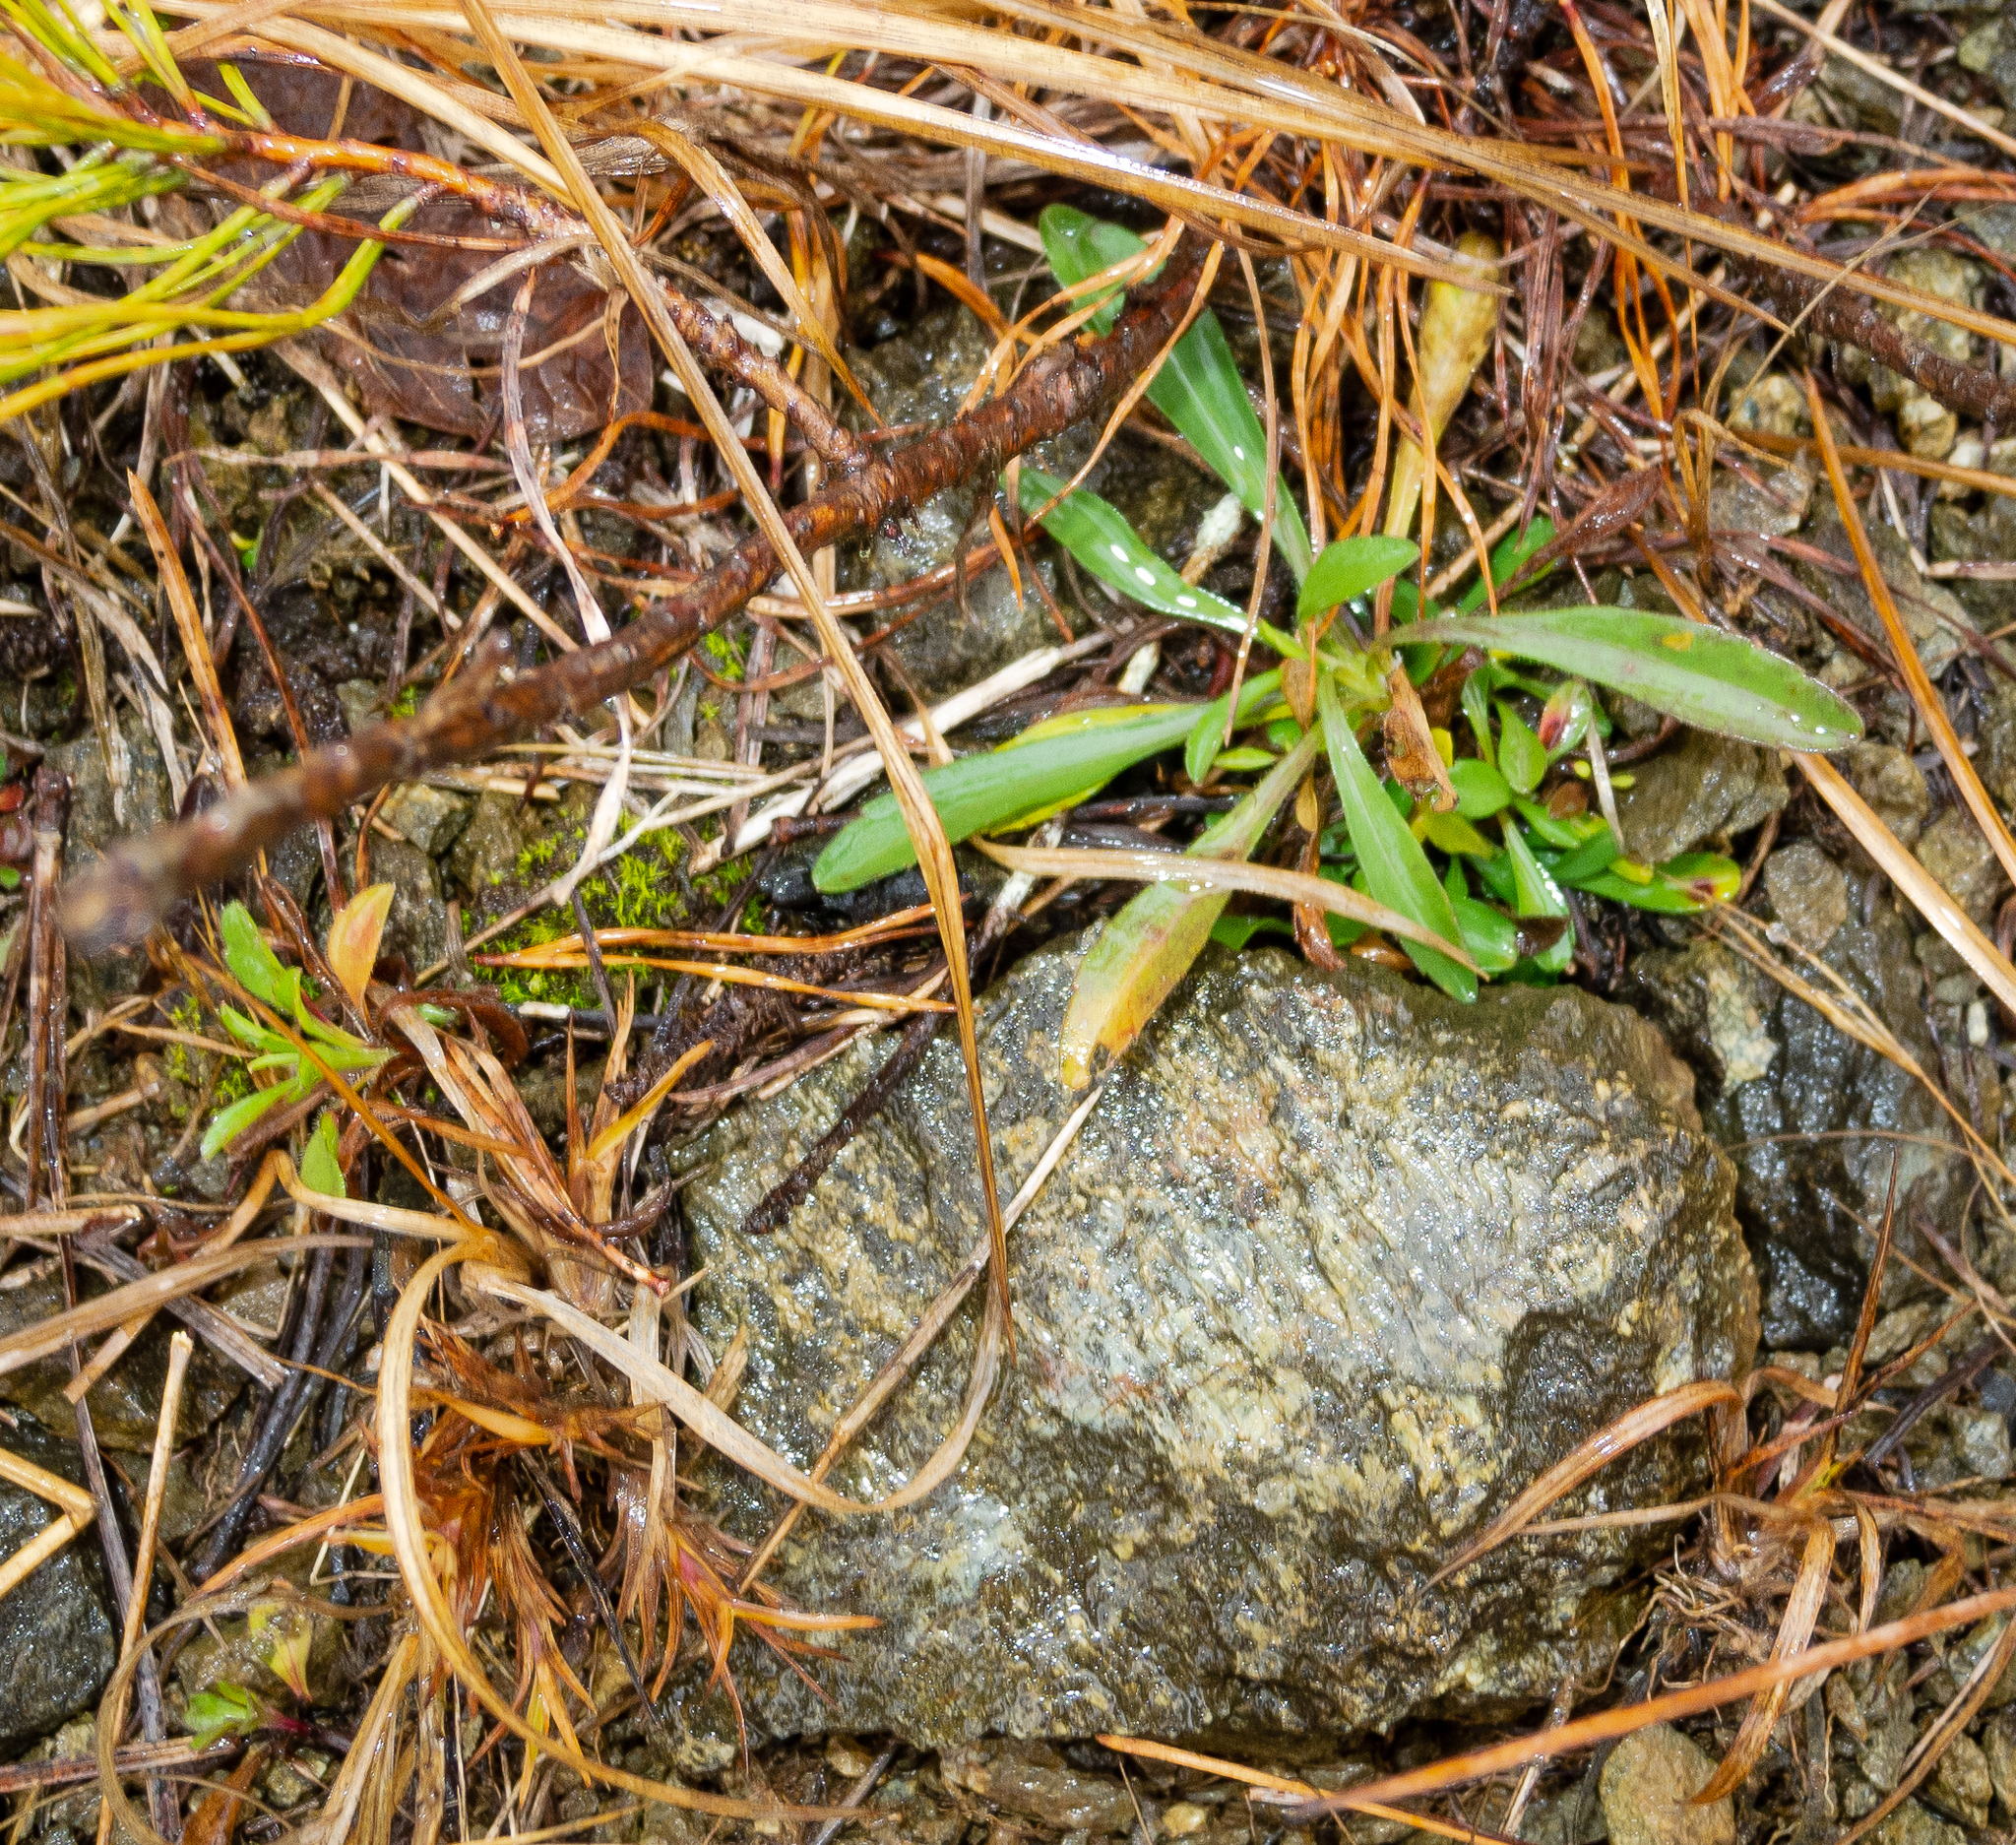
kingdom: Plantae
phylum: Tracheophyta
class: Magnoliopsida
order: Asterales
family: Asteraceae
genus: Symphyotrichum
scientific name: Symphyotrichum depauperatum
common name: Serpentine aster
